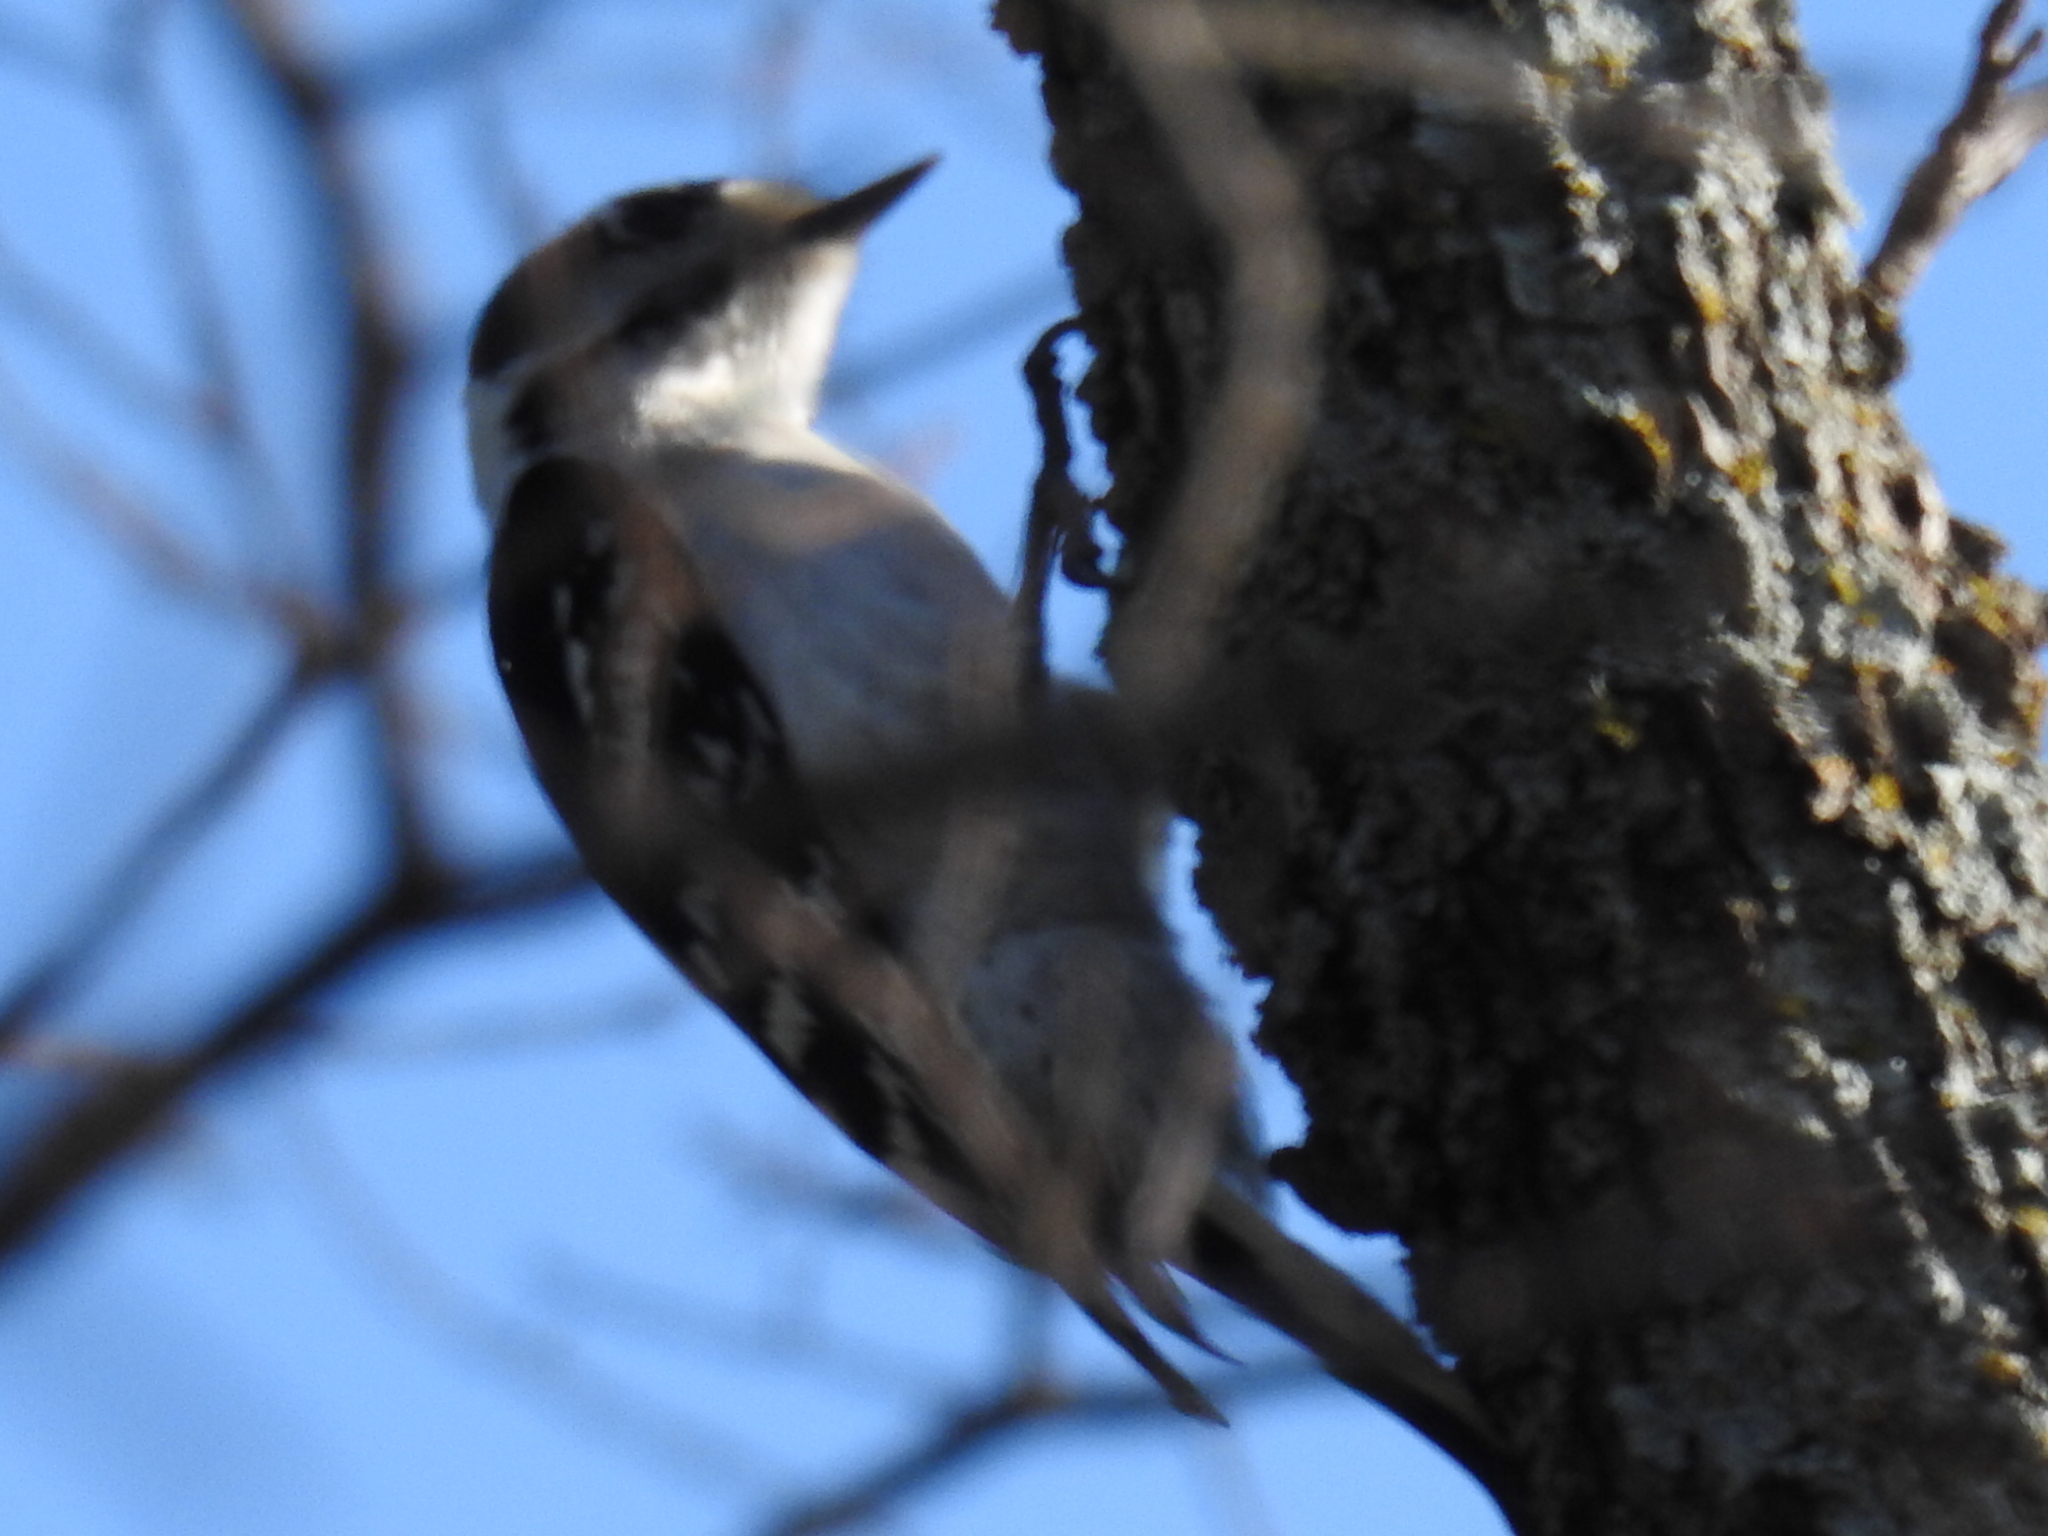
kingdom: Animalia
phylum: Chordata
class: Aves
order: Piciformes
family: Picidae
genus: Dryobates
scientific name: Dryobates pubescens
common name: Downy woodpecker
